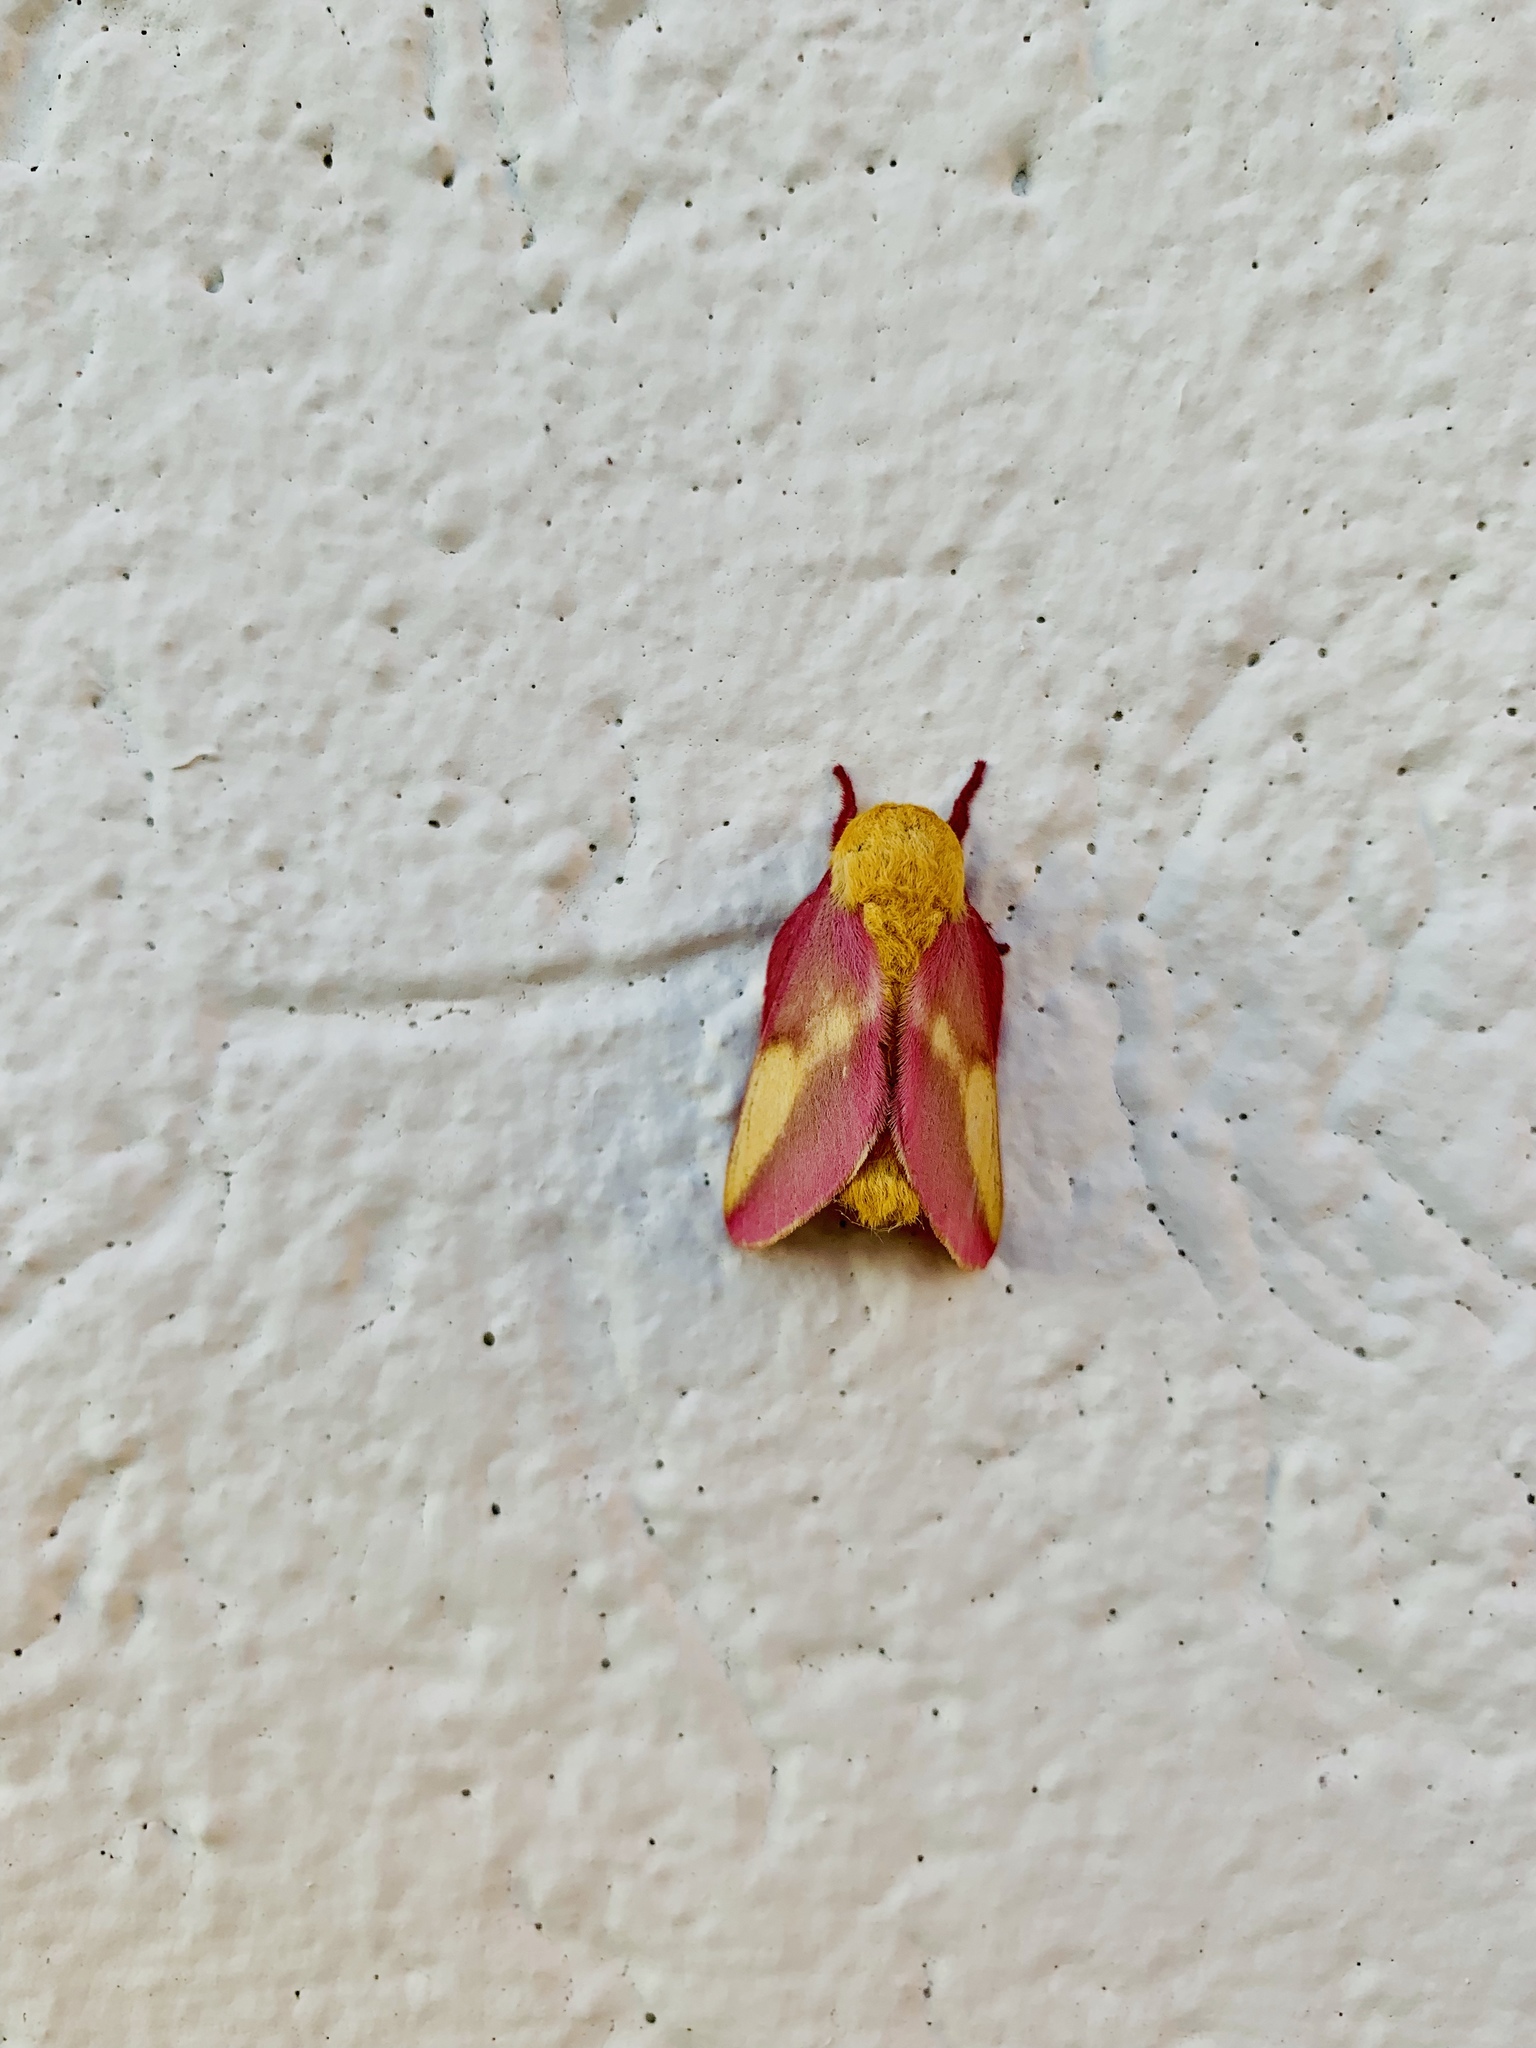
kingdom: Animalia
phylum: Arthropoda
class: Insecta
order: Lepidoptera
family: Saturniidae
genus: Dryocampa
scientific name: Dryocampa rubicunda
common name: Rosy maple moth
